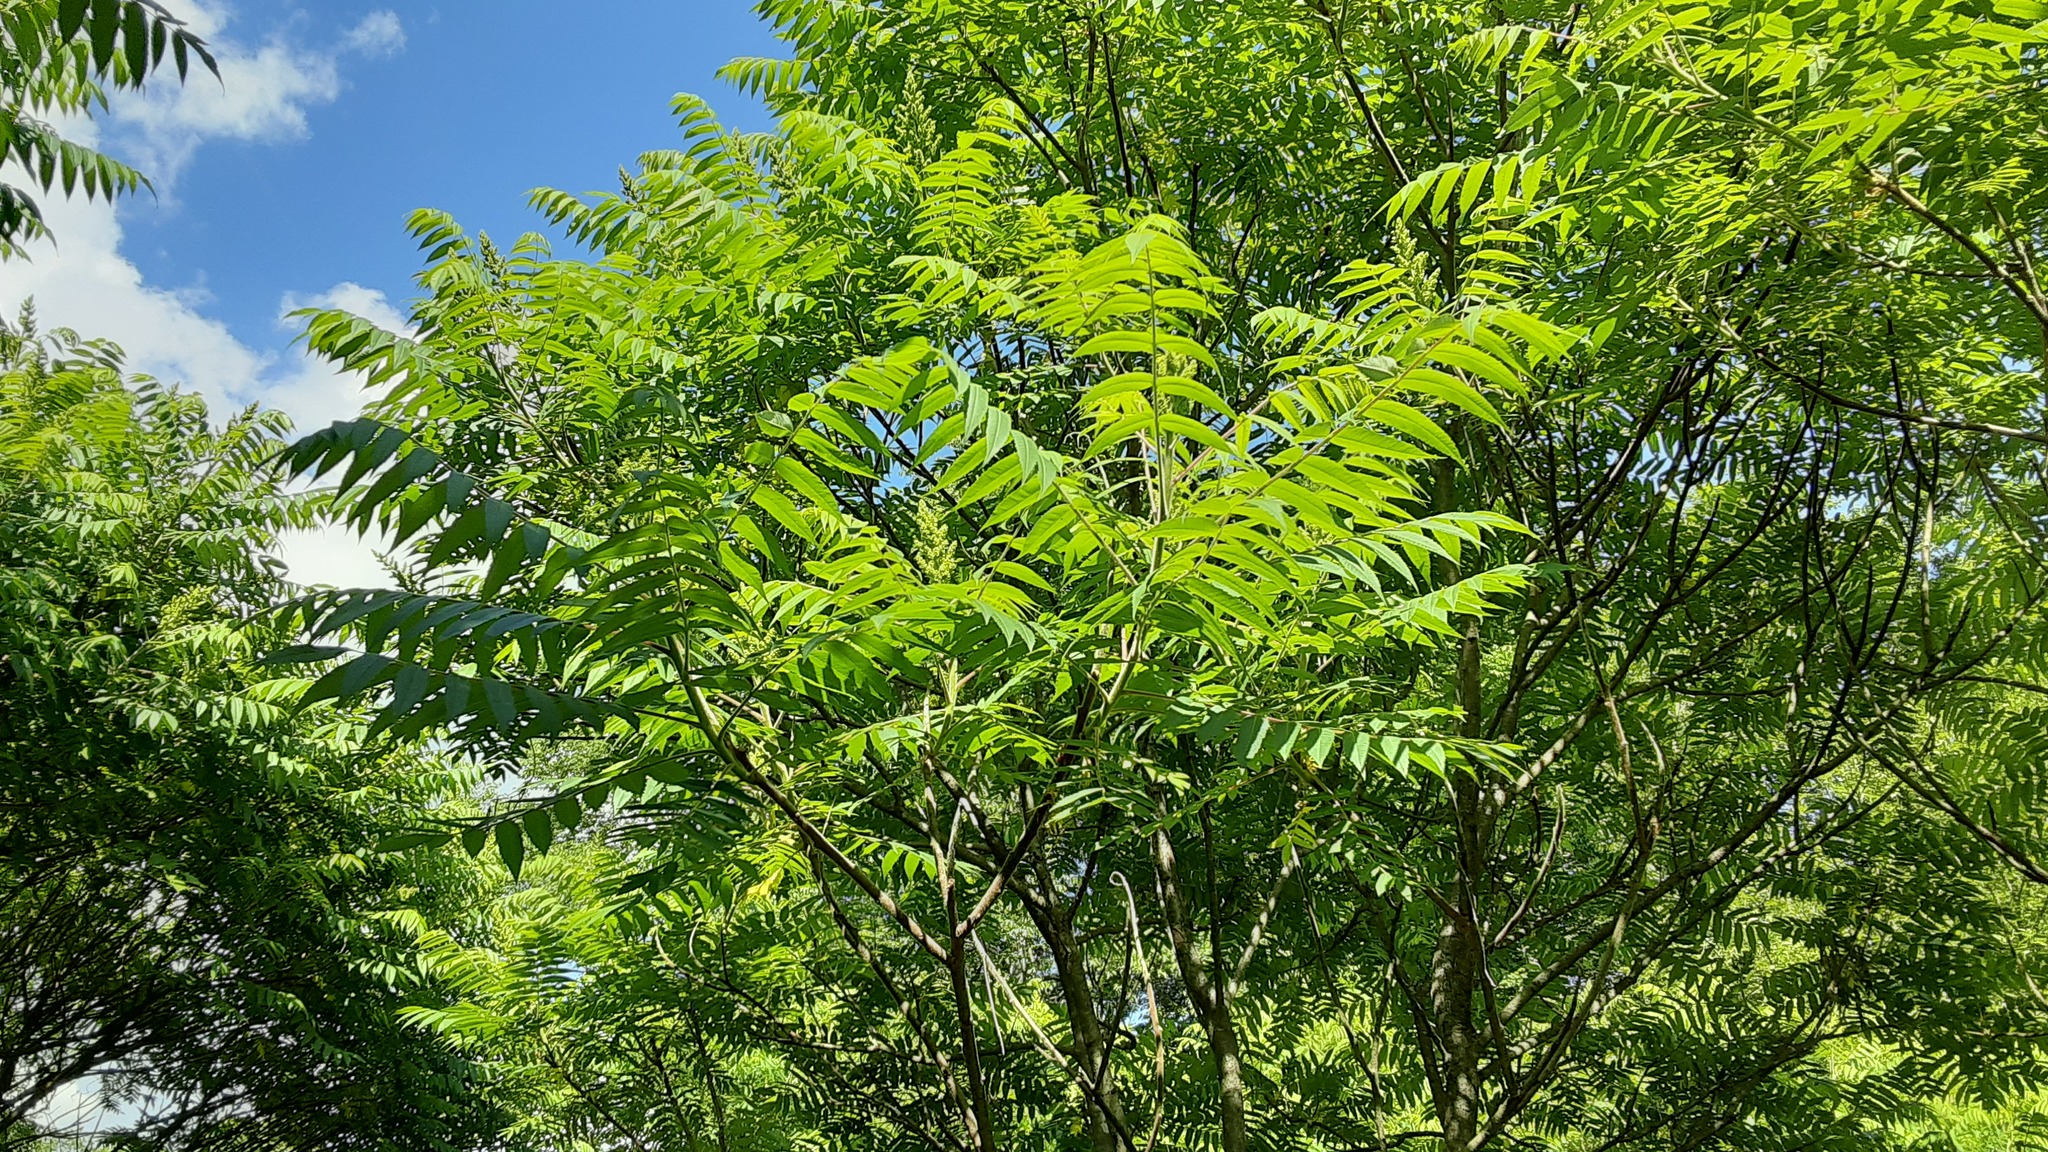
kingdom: Plantae
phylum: Tracheophyta
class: Magnoliopsida
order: Sapindales
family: Anacardiaceae
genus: Rhus
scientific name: Rhus typhina
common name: Staghorn sumac
